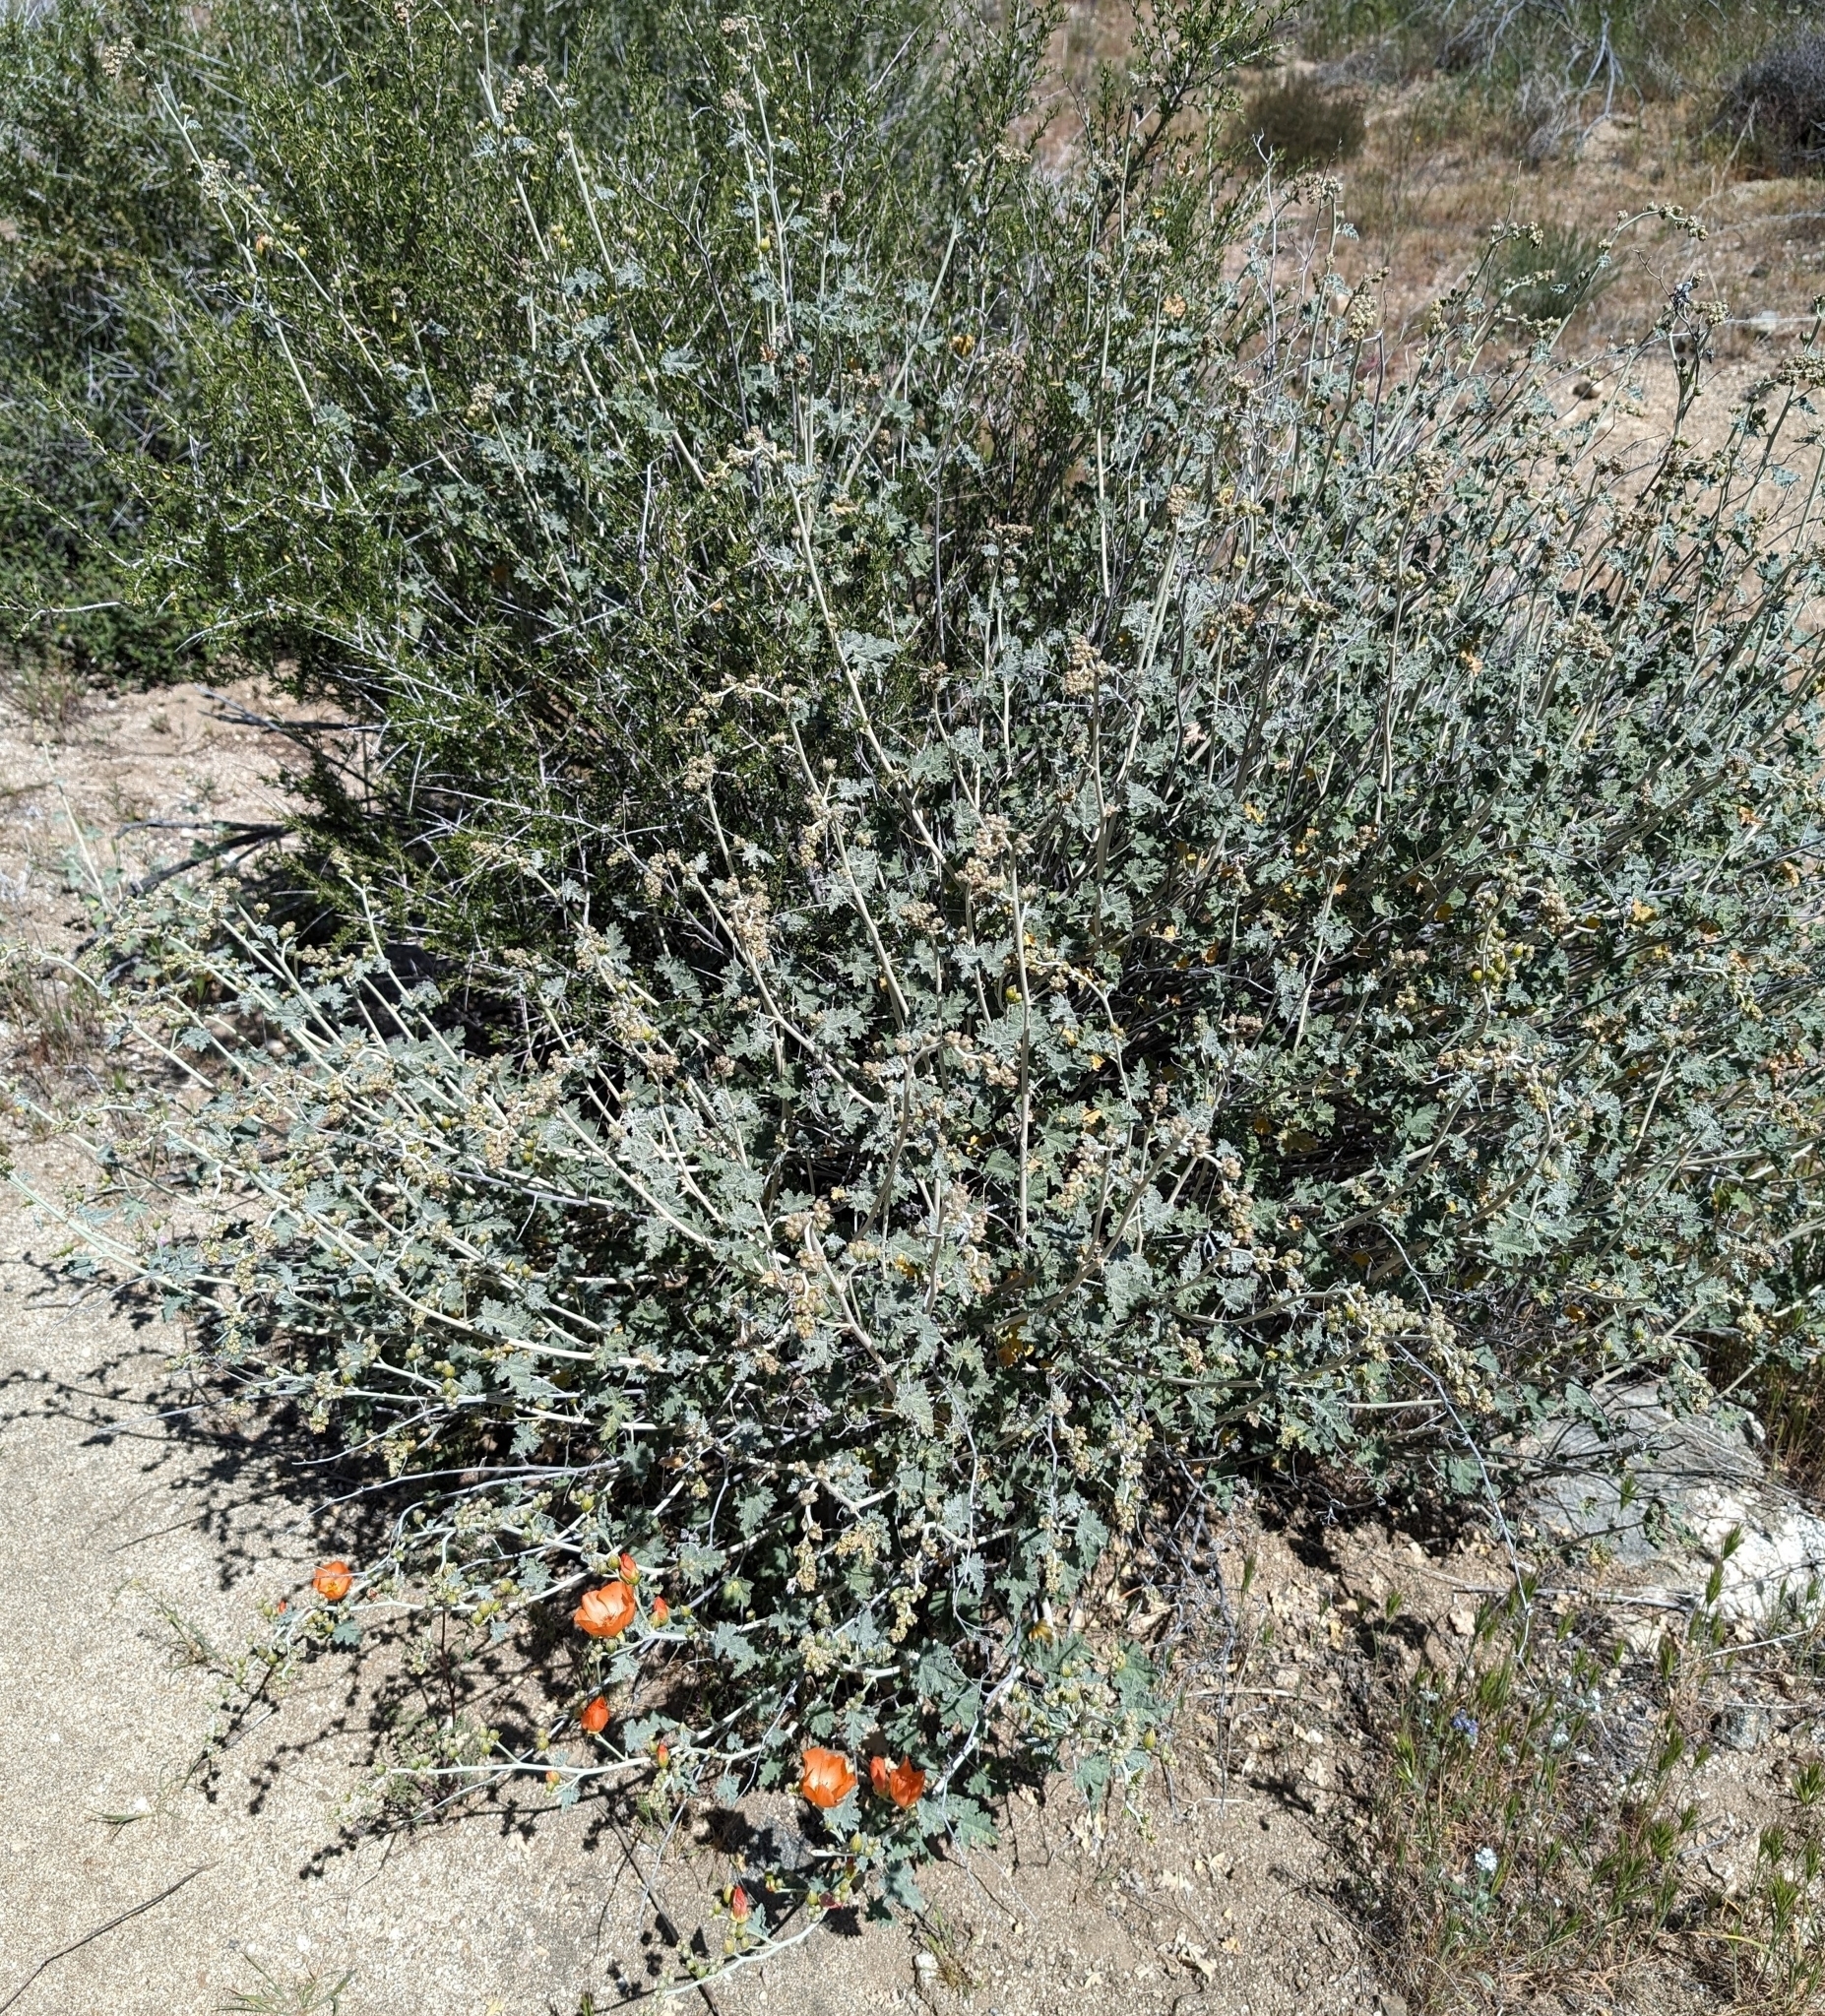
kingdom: Plantae
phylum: Tracheophyta
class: Magnoliopsida
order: Malvales
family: Malvaceae
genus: Sphaeralcea
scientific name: Sphaeralcea ambigua
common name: Apricot globe-mallow
